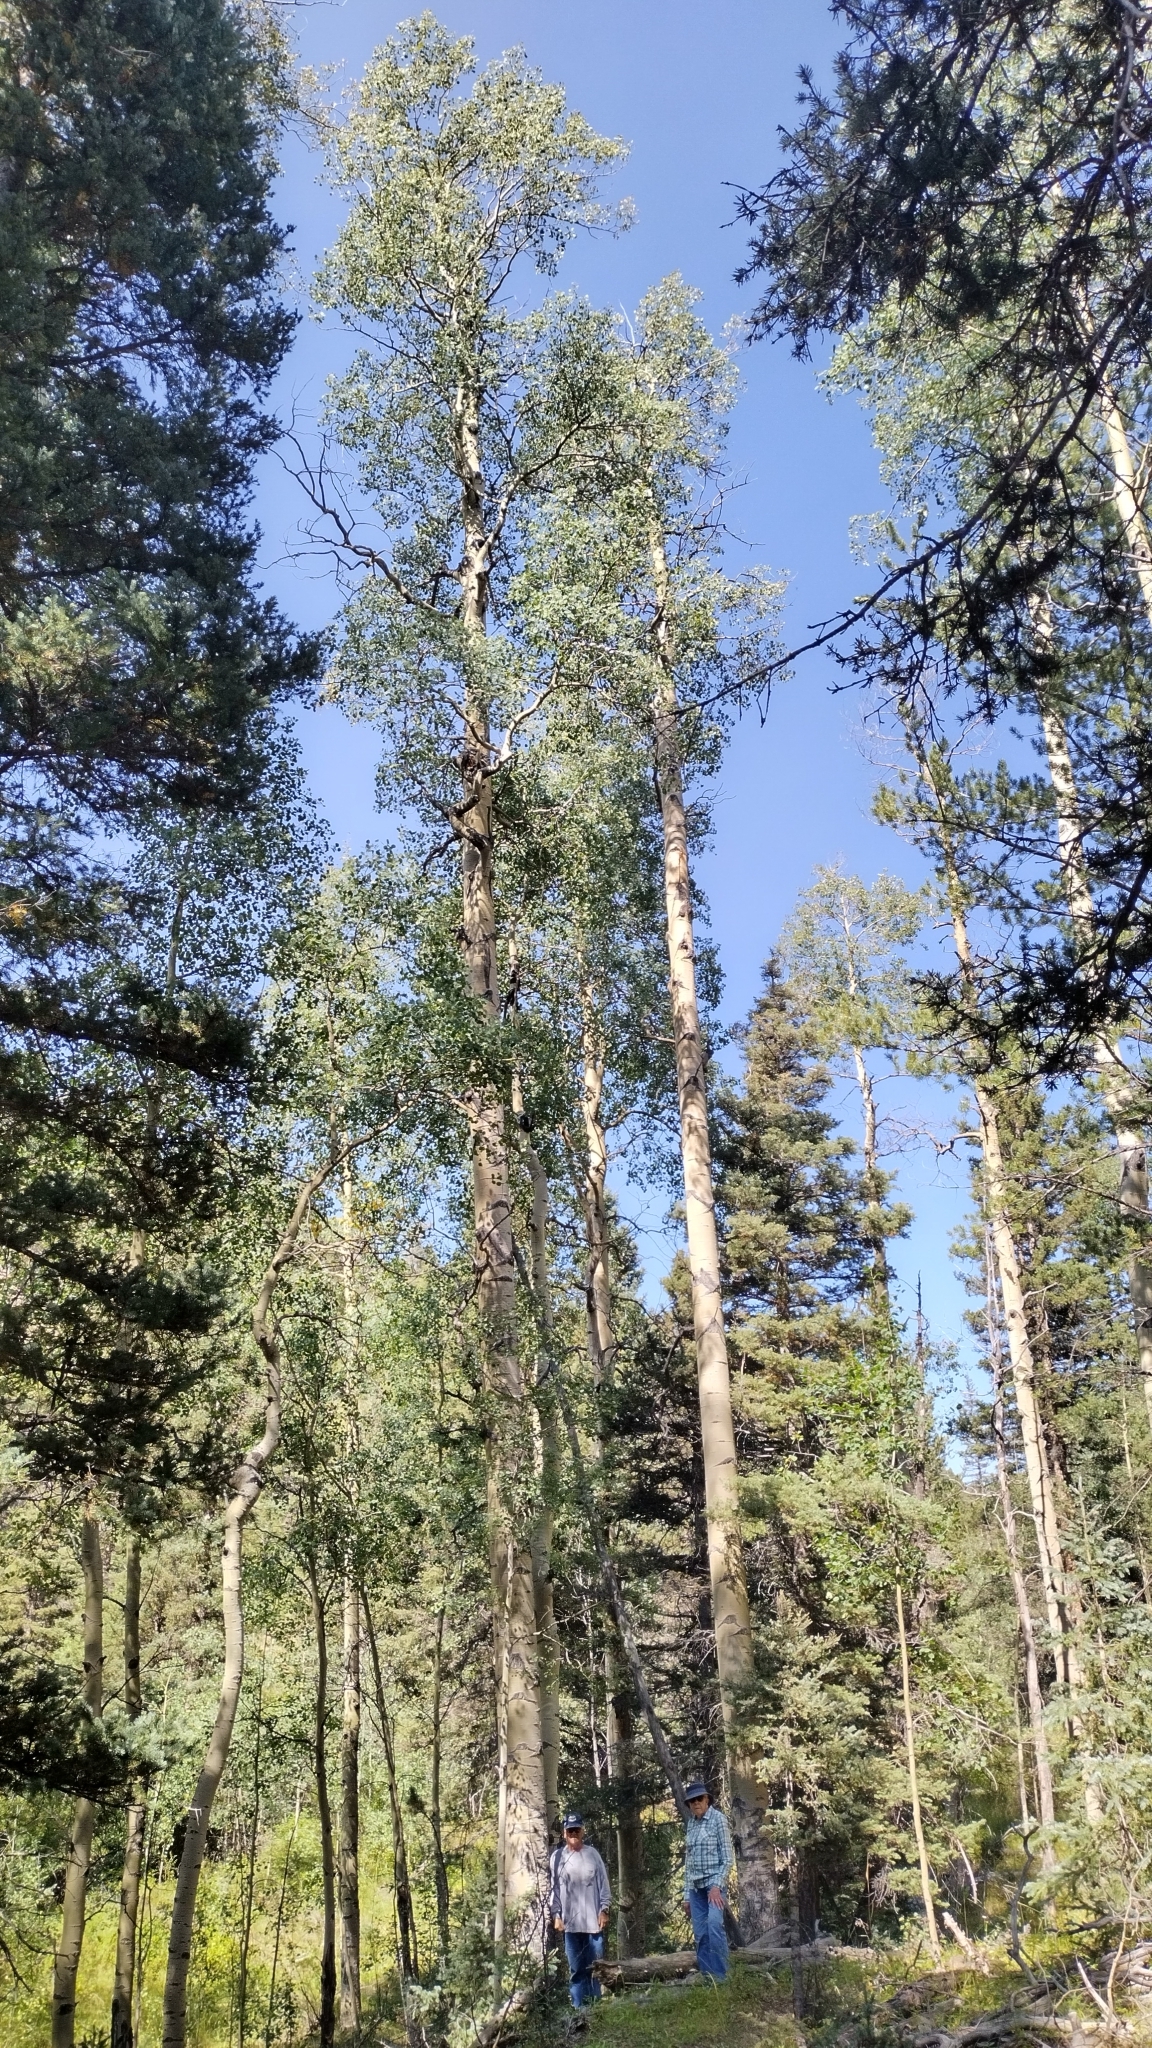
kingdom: Plantae
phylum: Tracheophyta
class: Magnoliopsida
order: Malpighiales
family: Salicaceae
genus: Populus
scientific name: Populus tremuloides
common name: Quaking aspen
